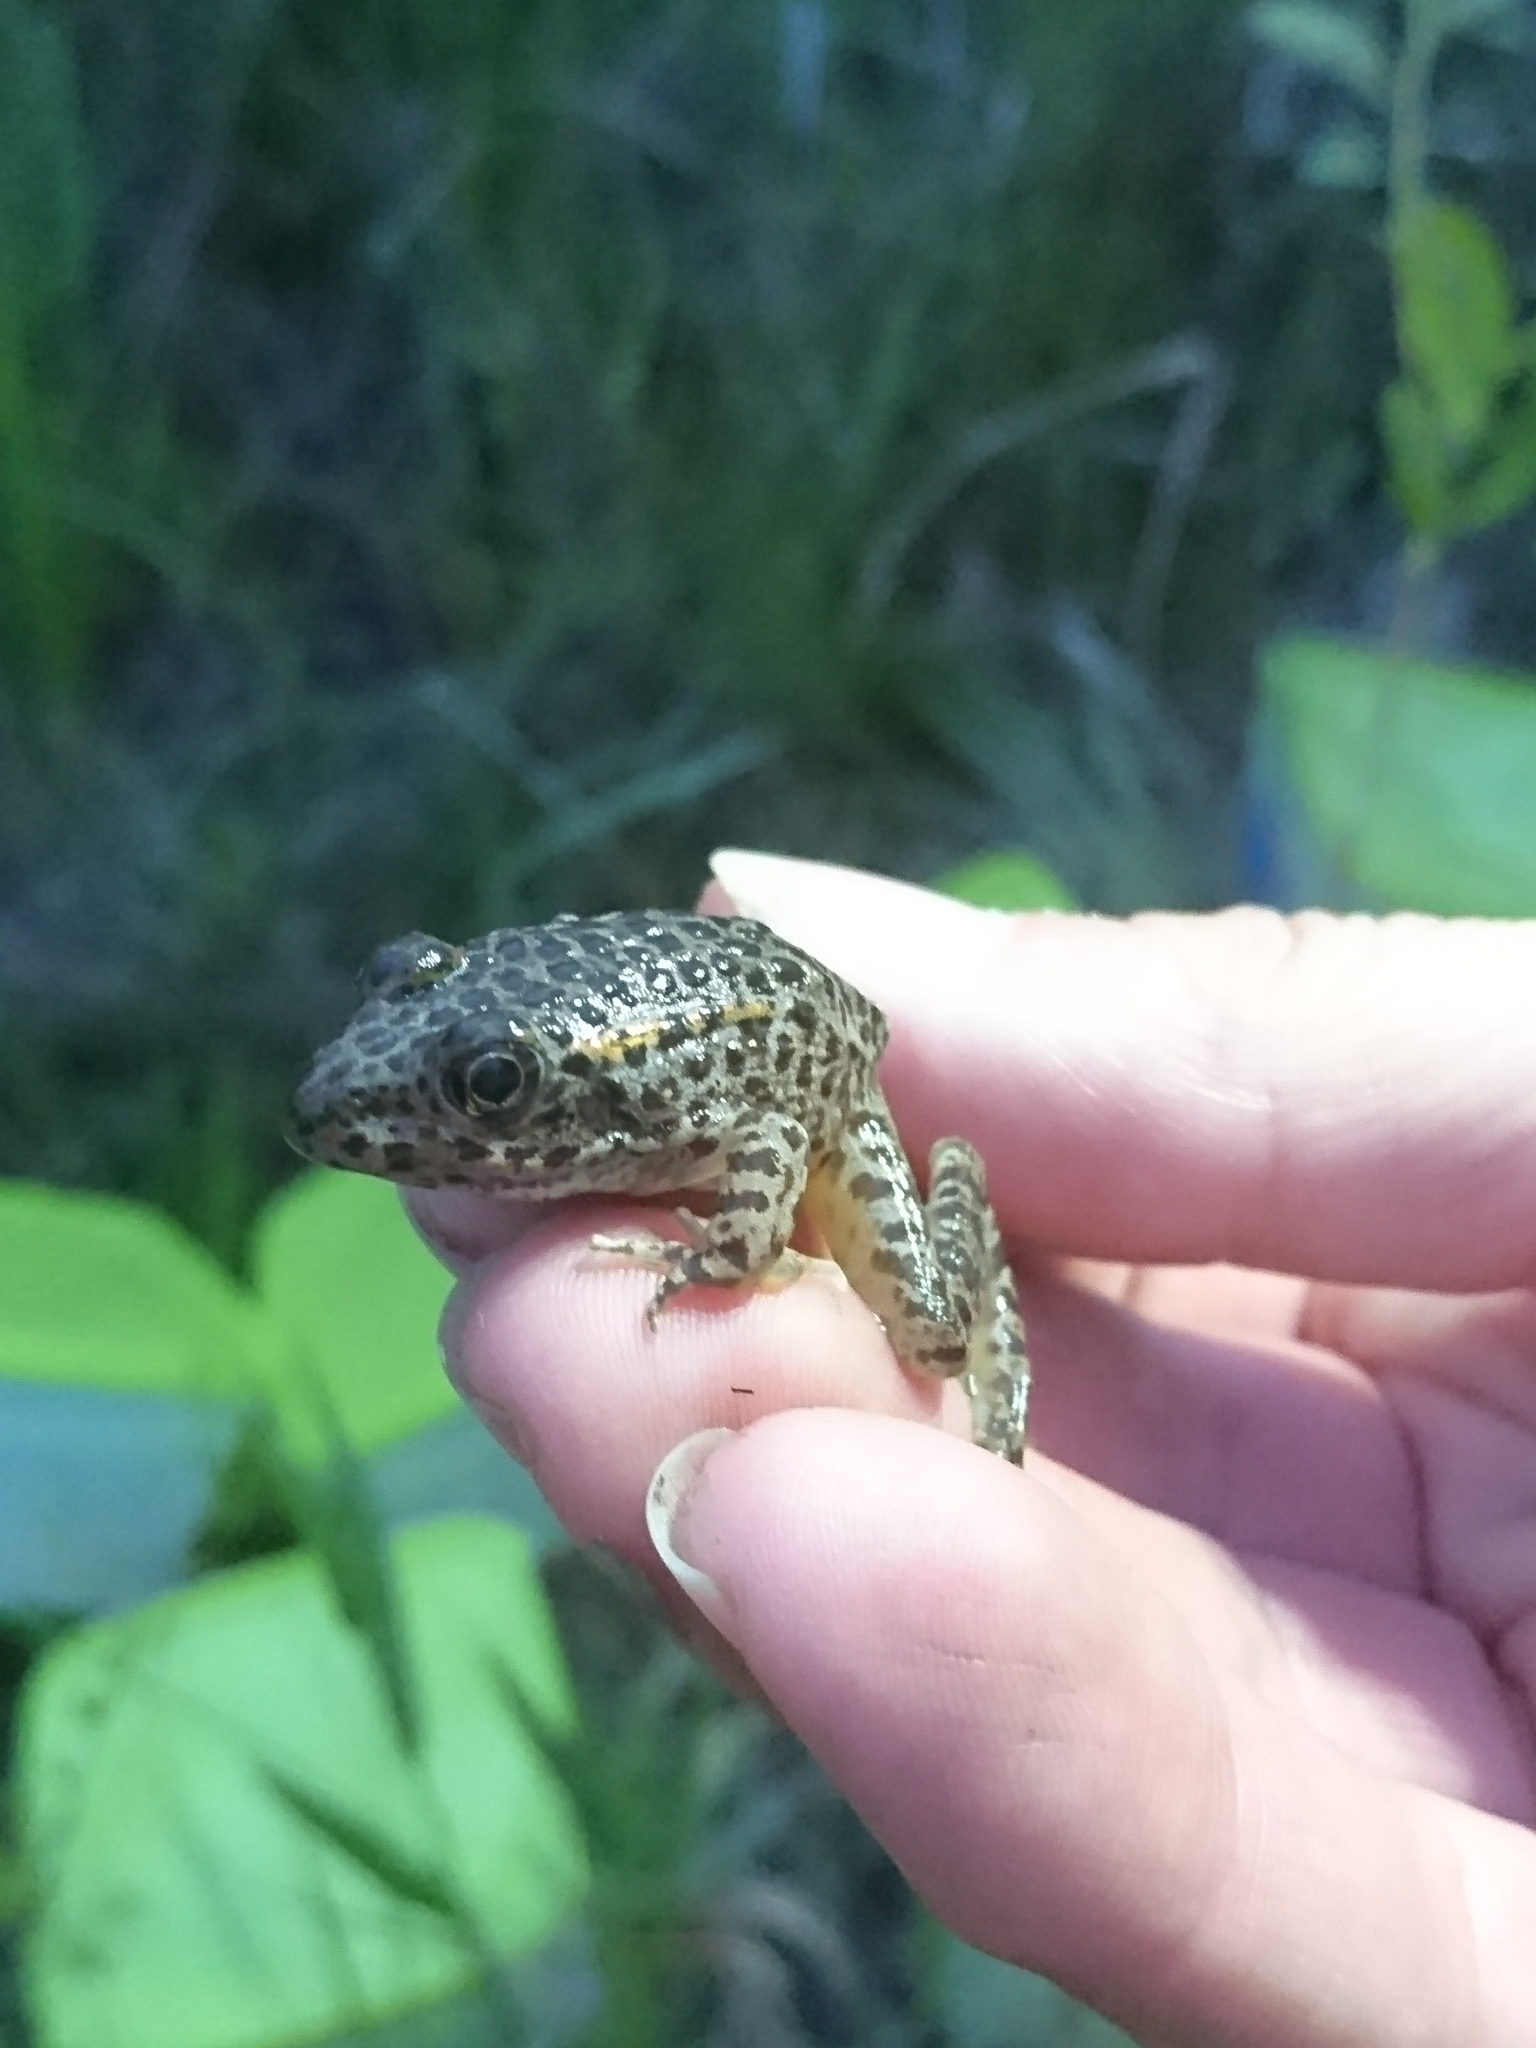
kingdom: Animalia
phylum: Chordata
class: Amphibia
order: Anura
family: Ranidae
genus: Lithobates
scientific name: Lithobates sevosus
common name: Dusky gopher frog
